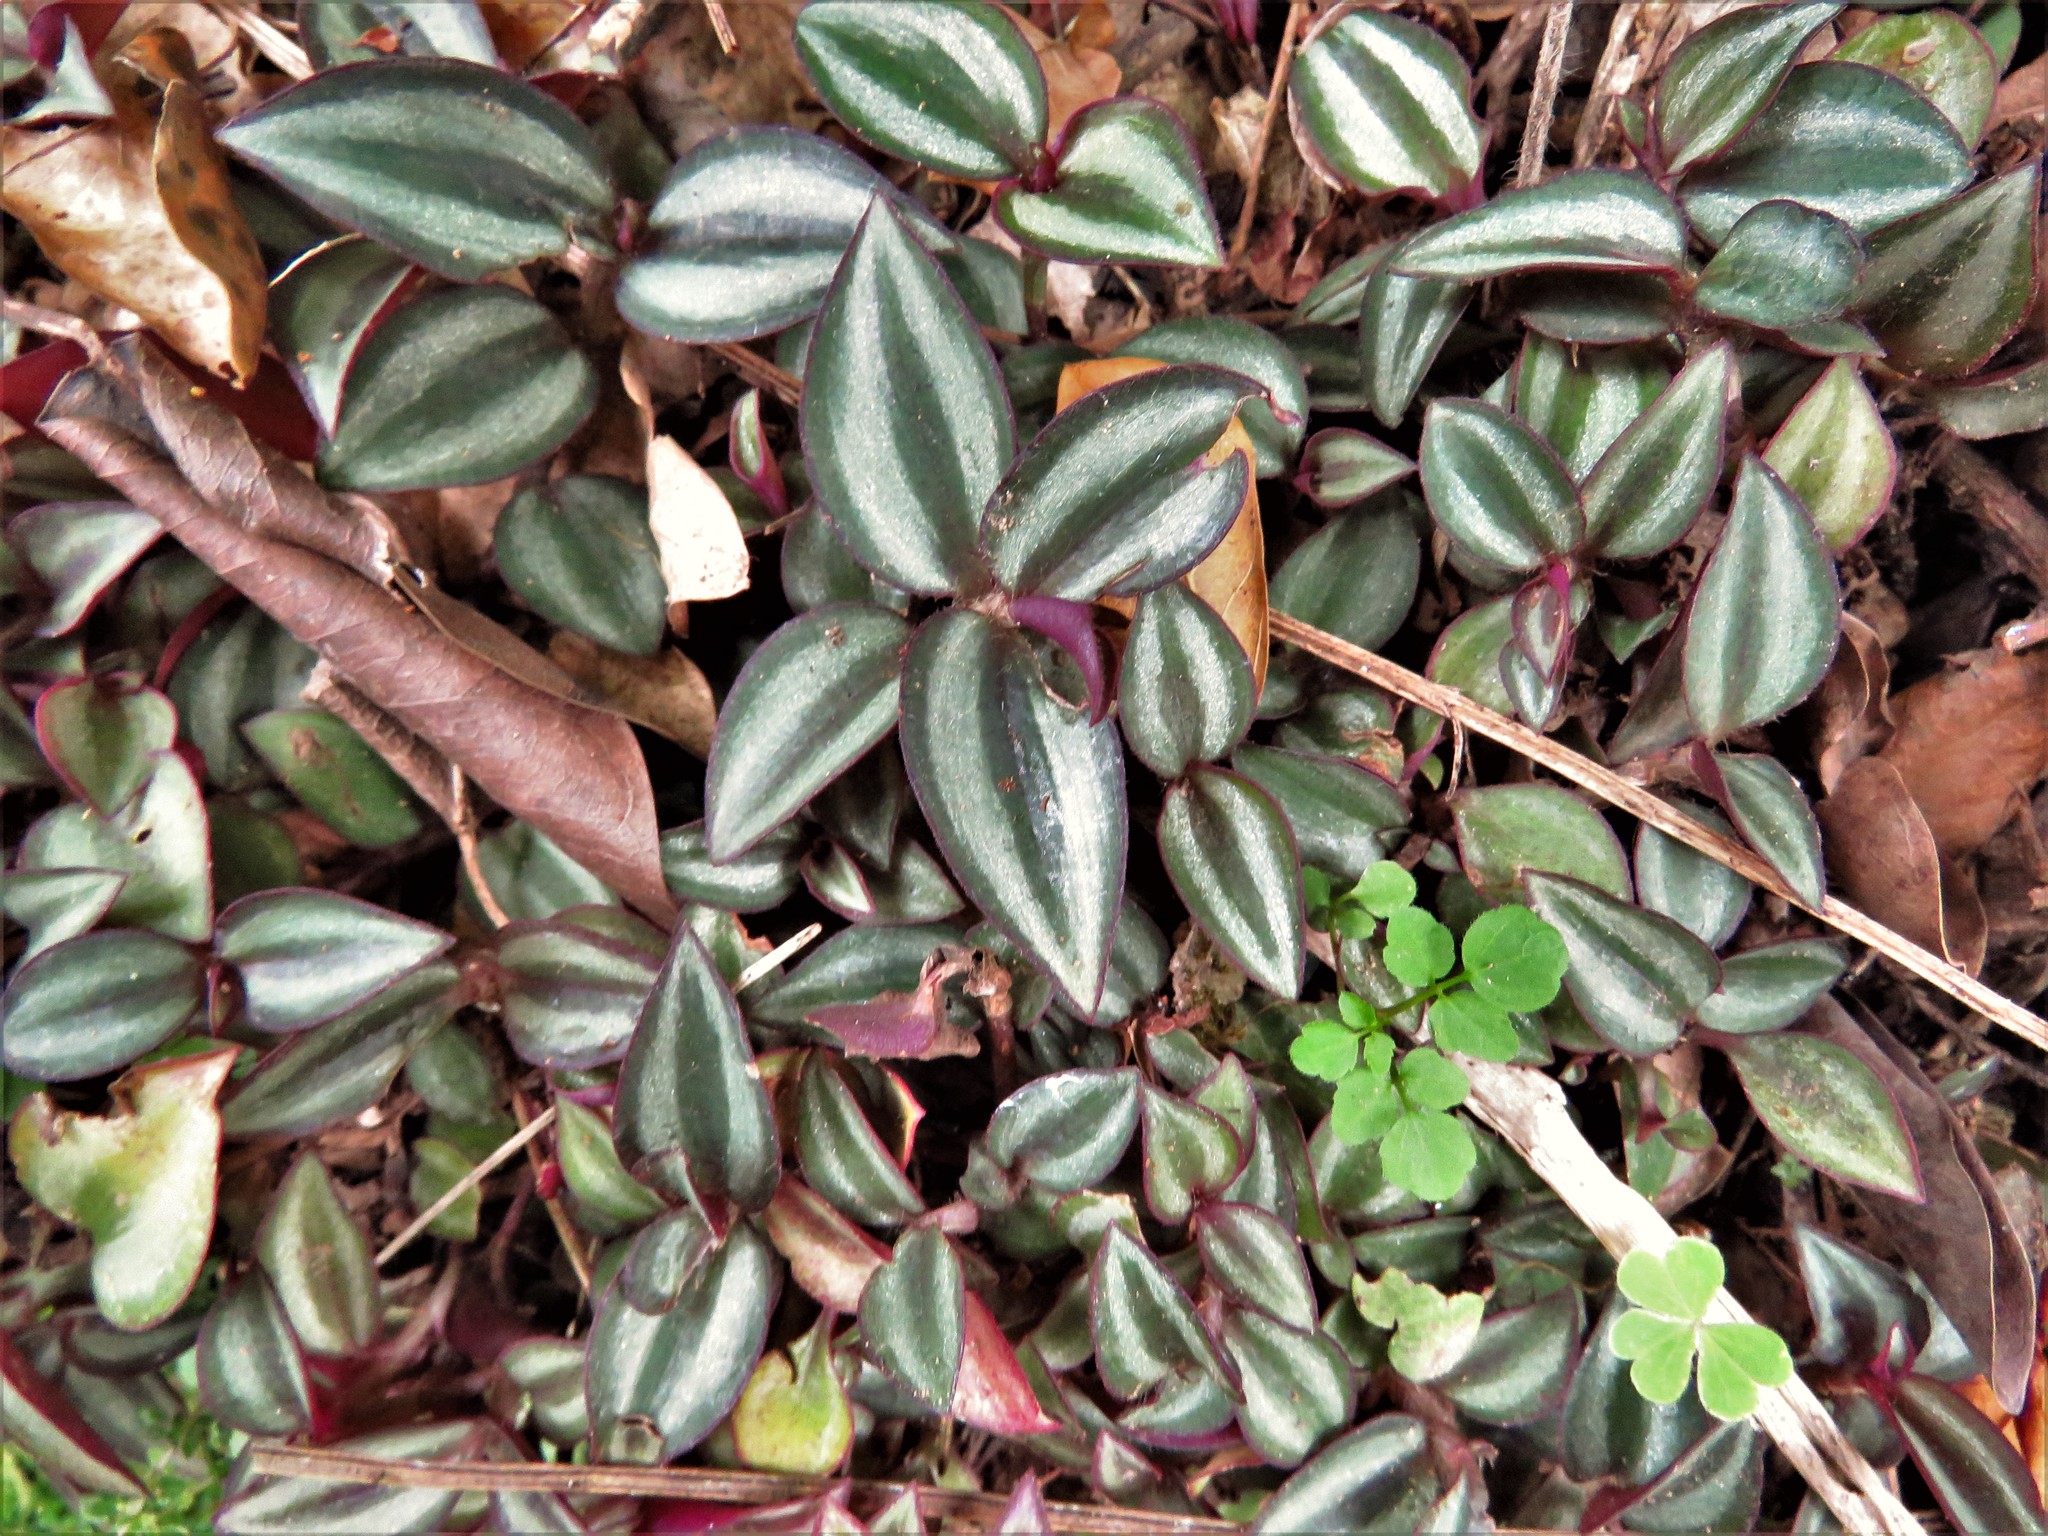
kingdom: Plantae
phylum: Tracheophyta
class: Liliopsida
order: Commelinales
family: Commelinaceae
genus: Tradescantia
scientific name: Tradescantia zebrina
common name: Inchplant
